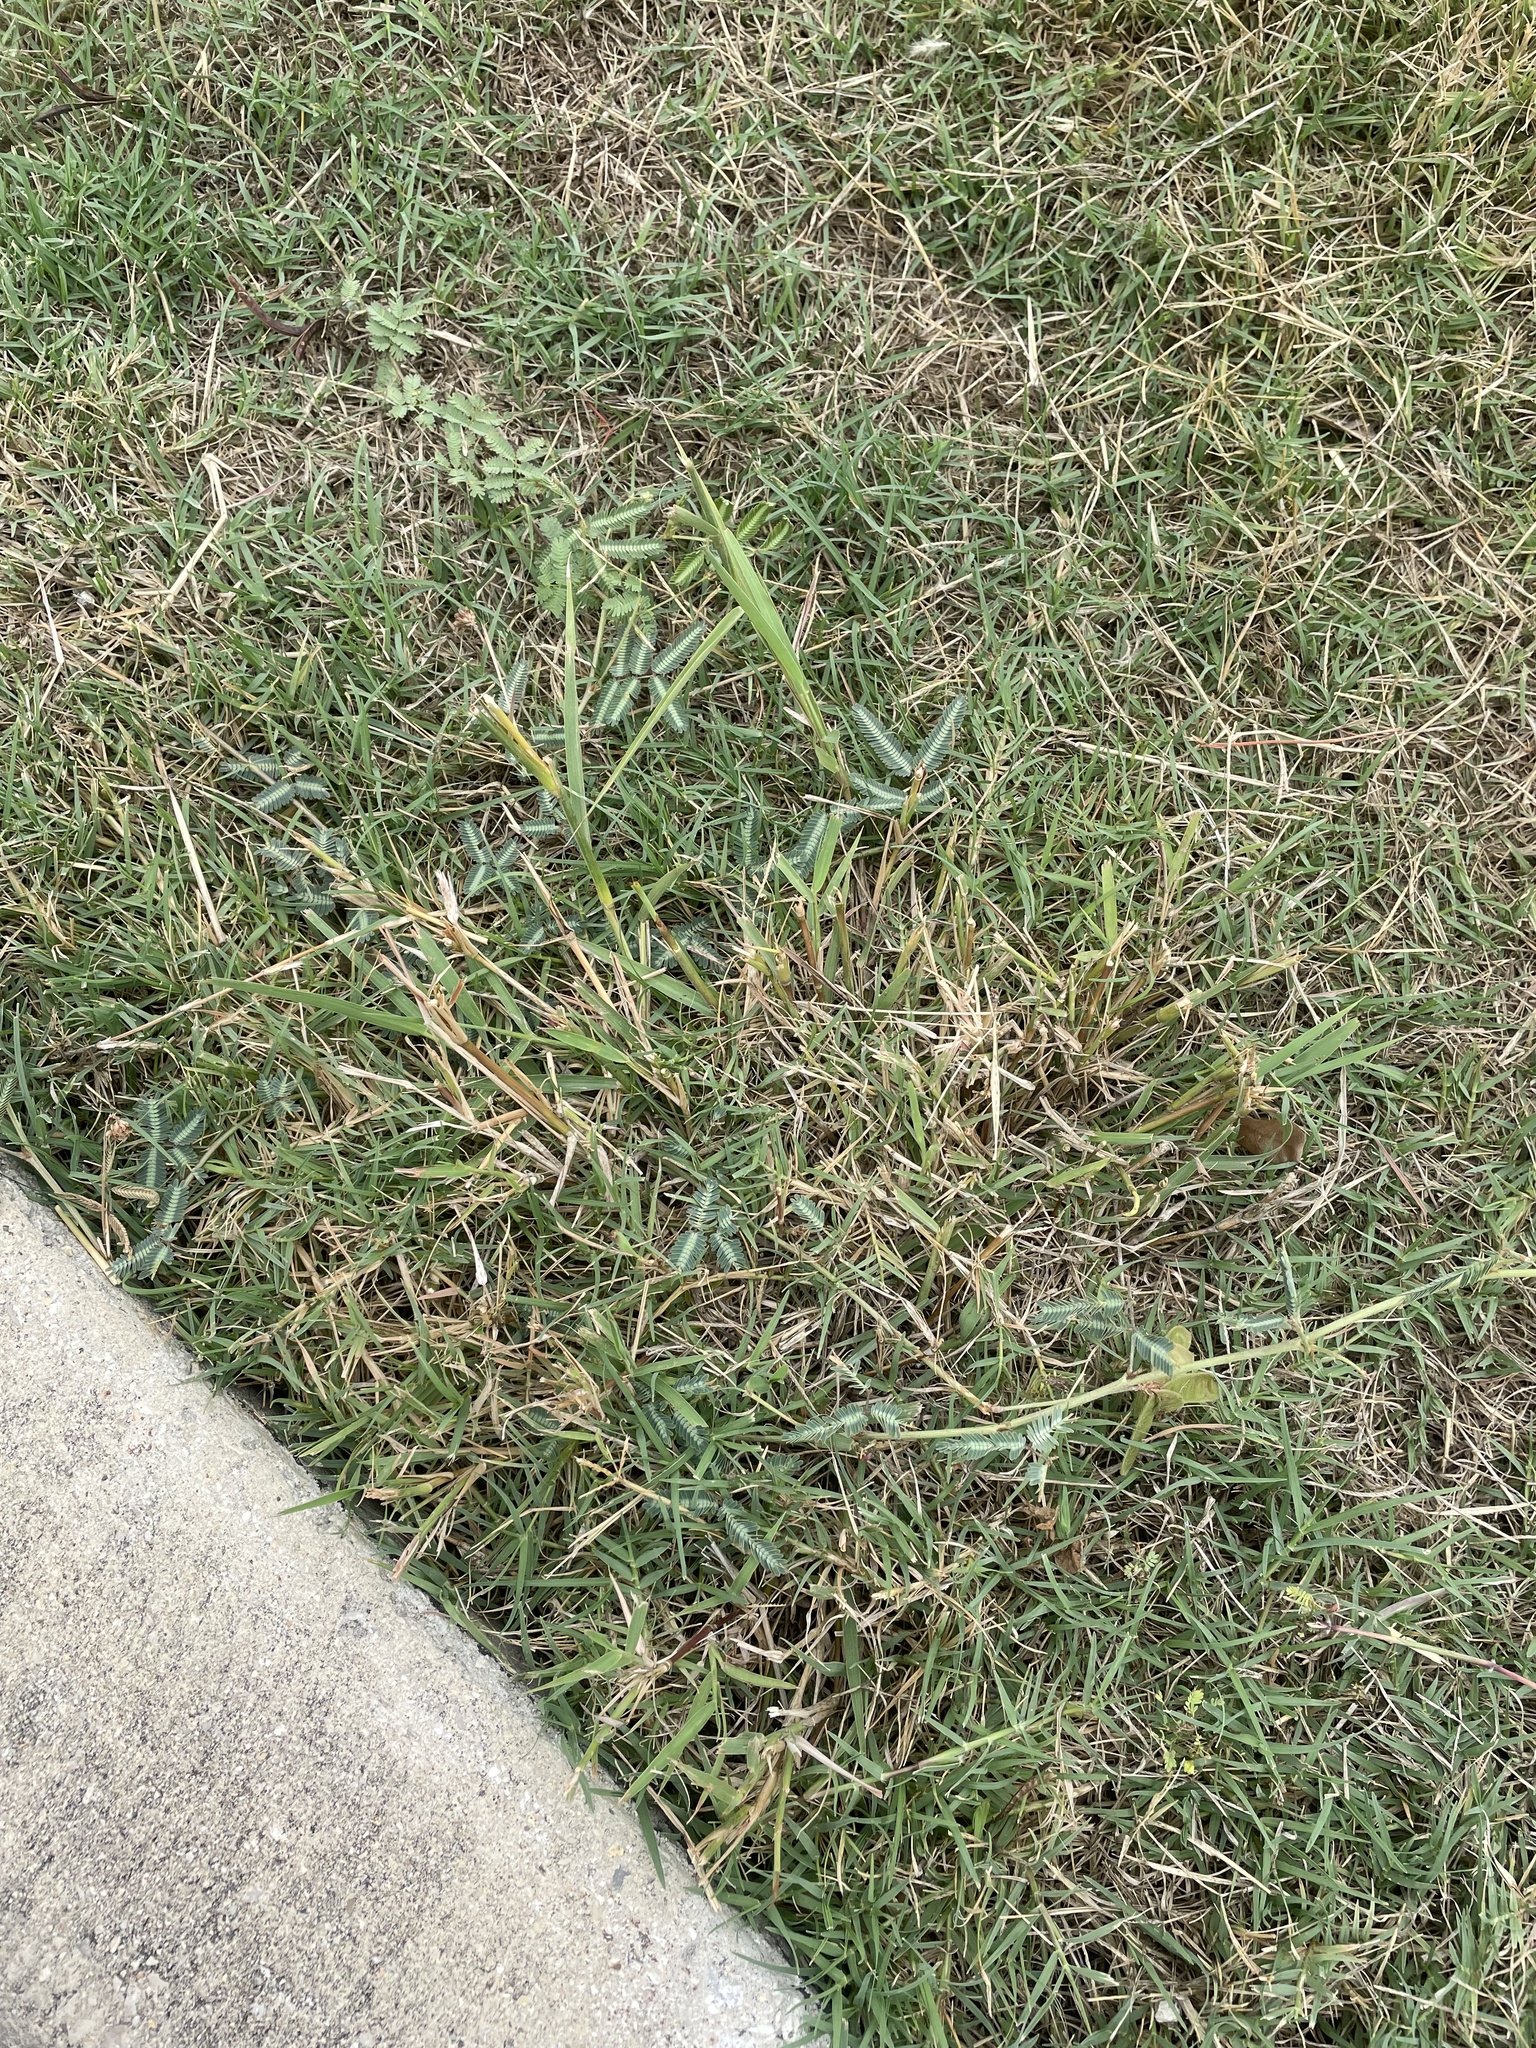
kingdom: Plantae
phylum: Tracheophyta
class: Magnoliopsida
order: Fabales
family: Fabaceae
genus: Neptunia
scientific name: Neptunia pubescens
